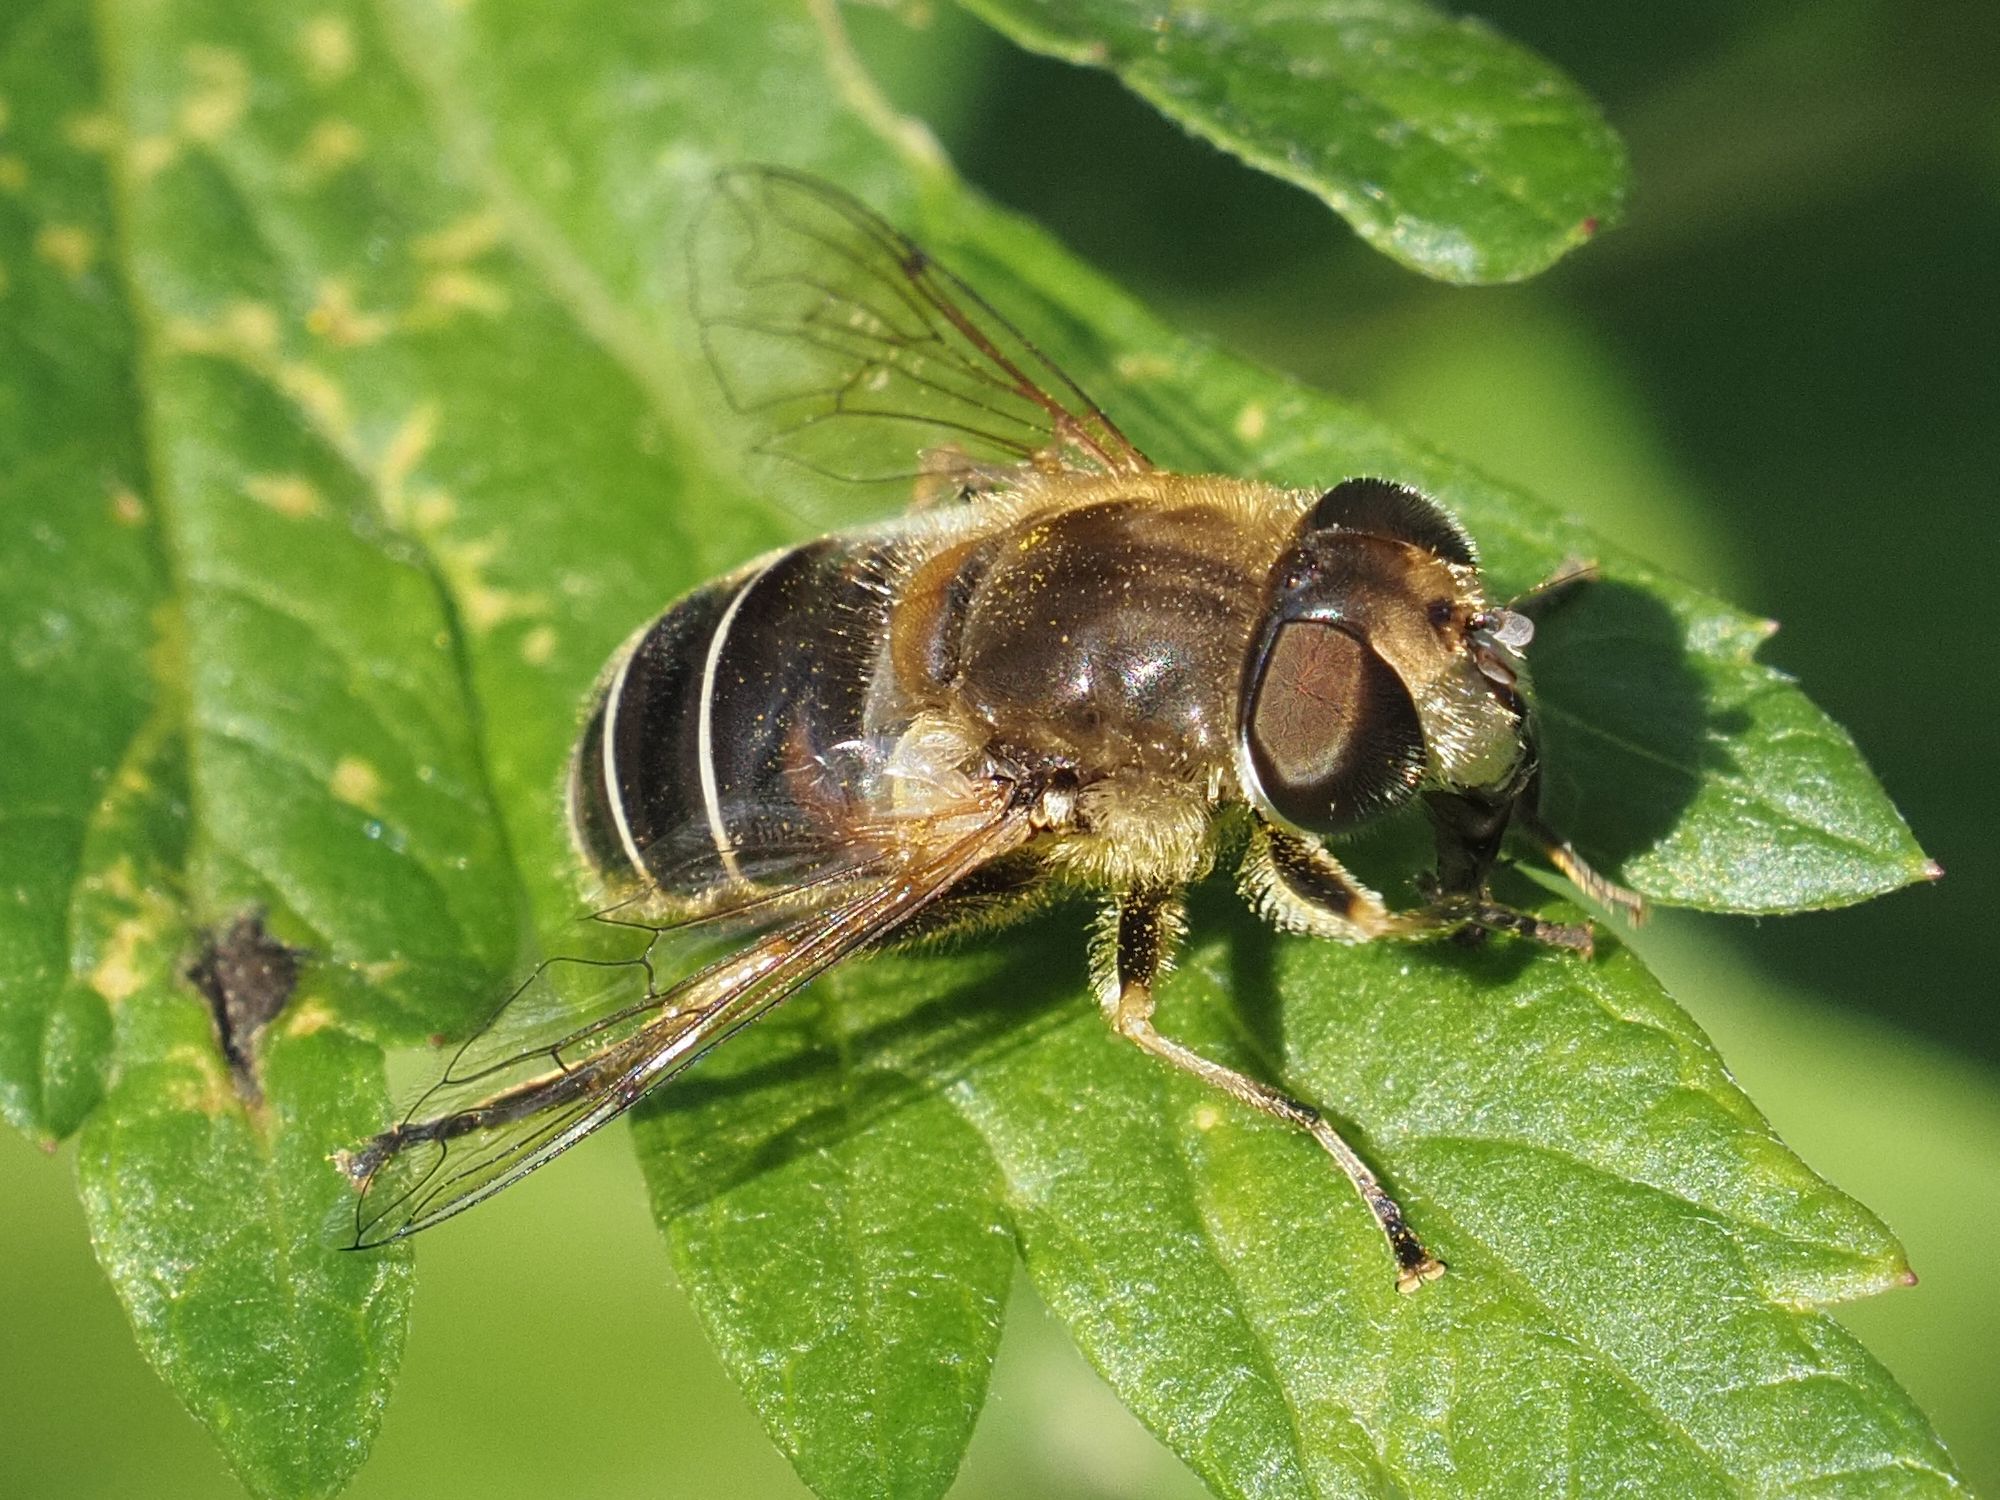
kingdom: Animalia
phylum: Arthropoda
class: Insecta
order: Diptera
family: Syrphidae
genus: Eristalis
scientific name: Eristalis nemorum
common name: Orange-spined drone fly
